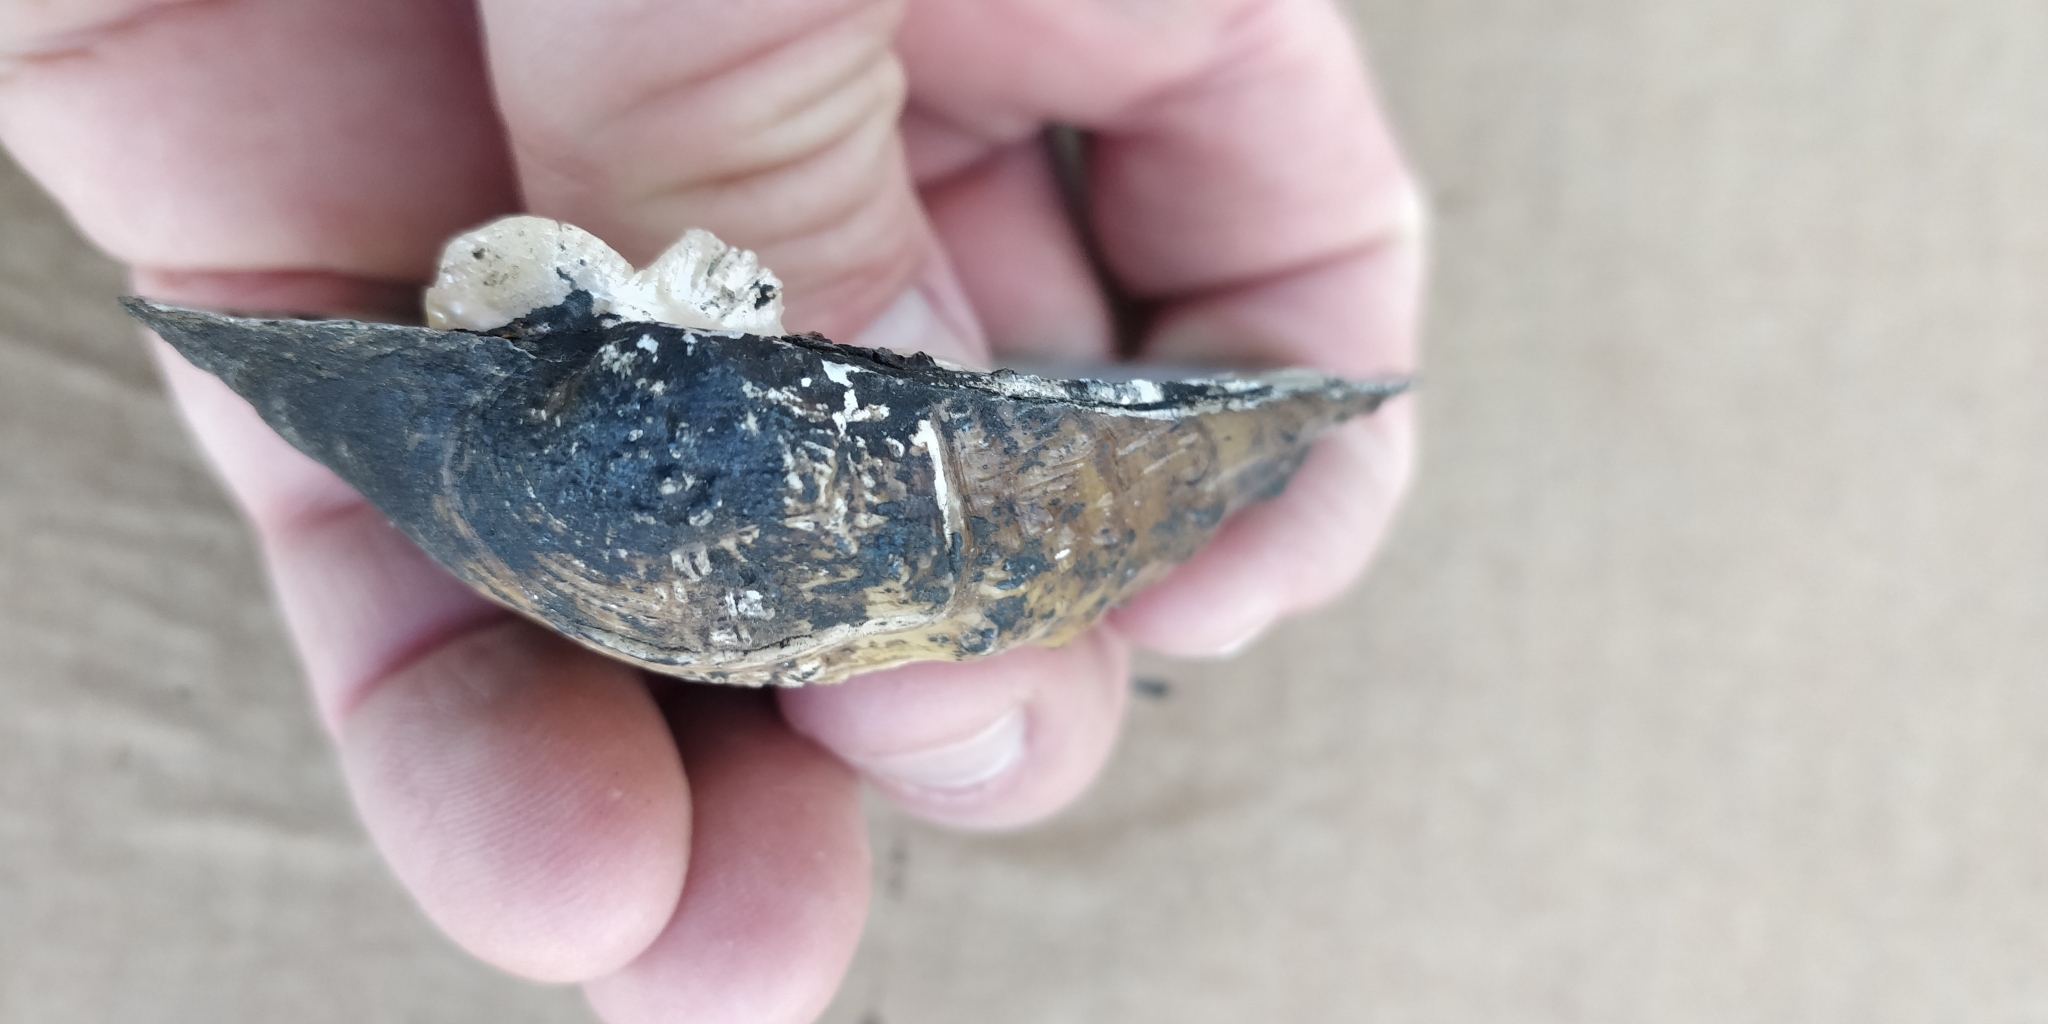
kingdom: Animalia
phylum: Mollusca
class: Bivalvia
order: Unionida
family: Unionidae
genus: Quadrula
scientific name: Quadrula quadrula
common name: Mapleleaf
